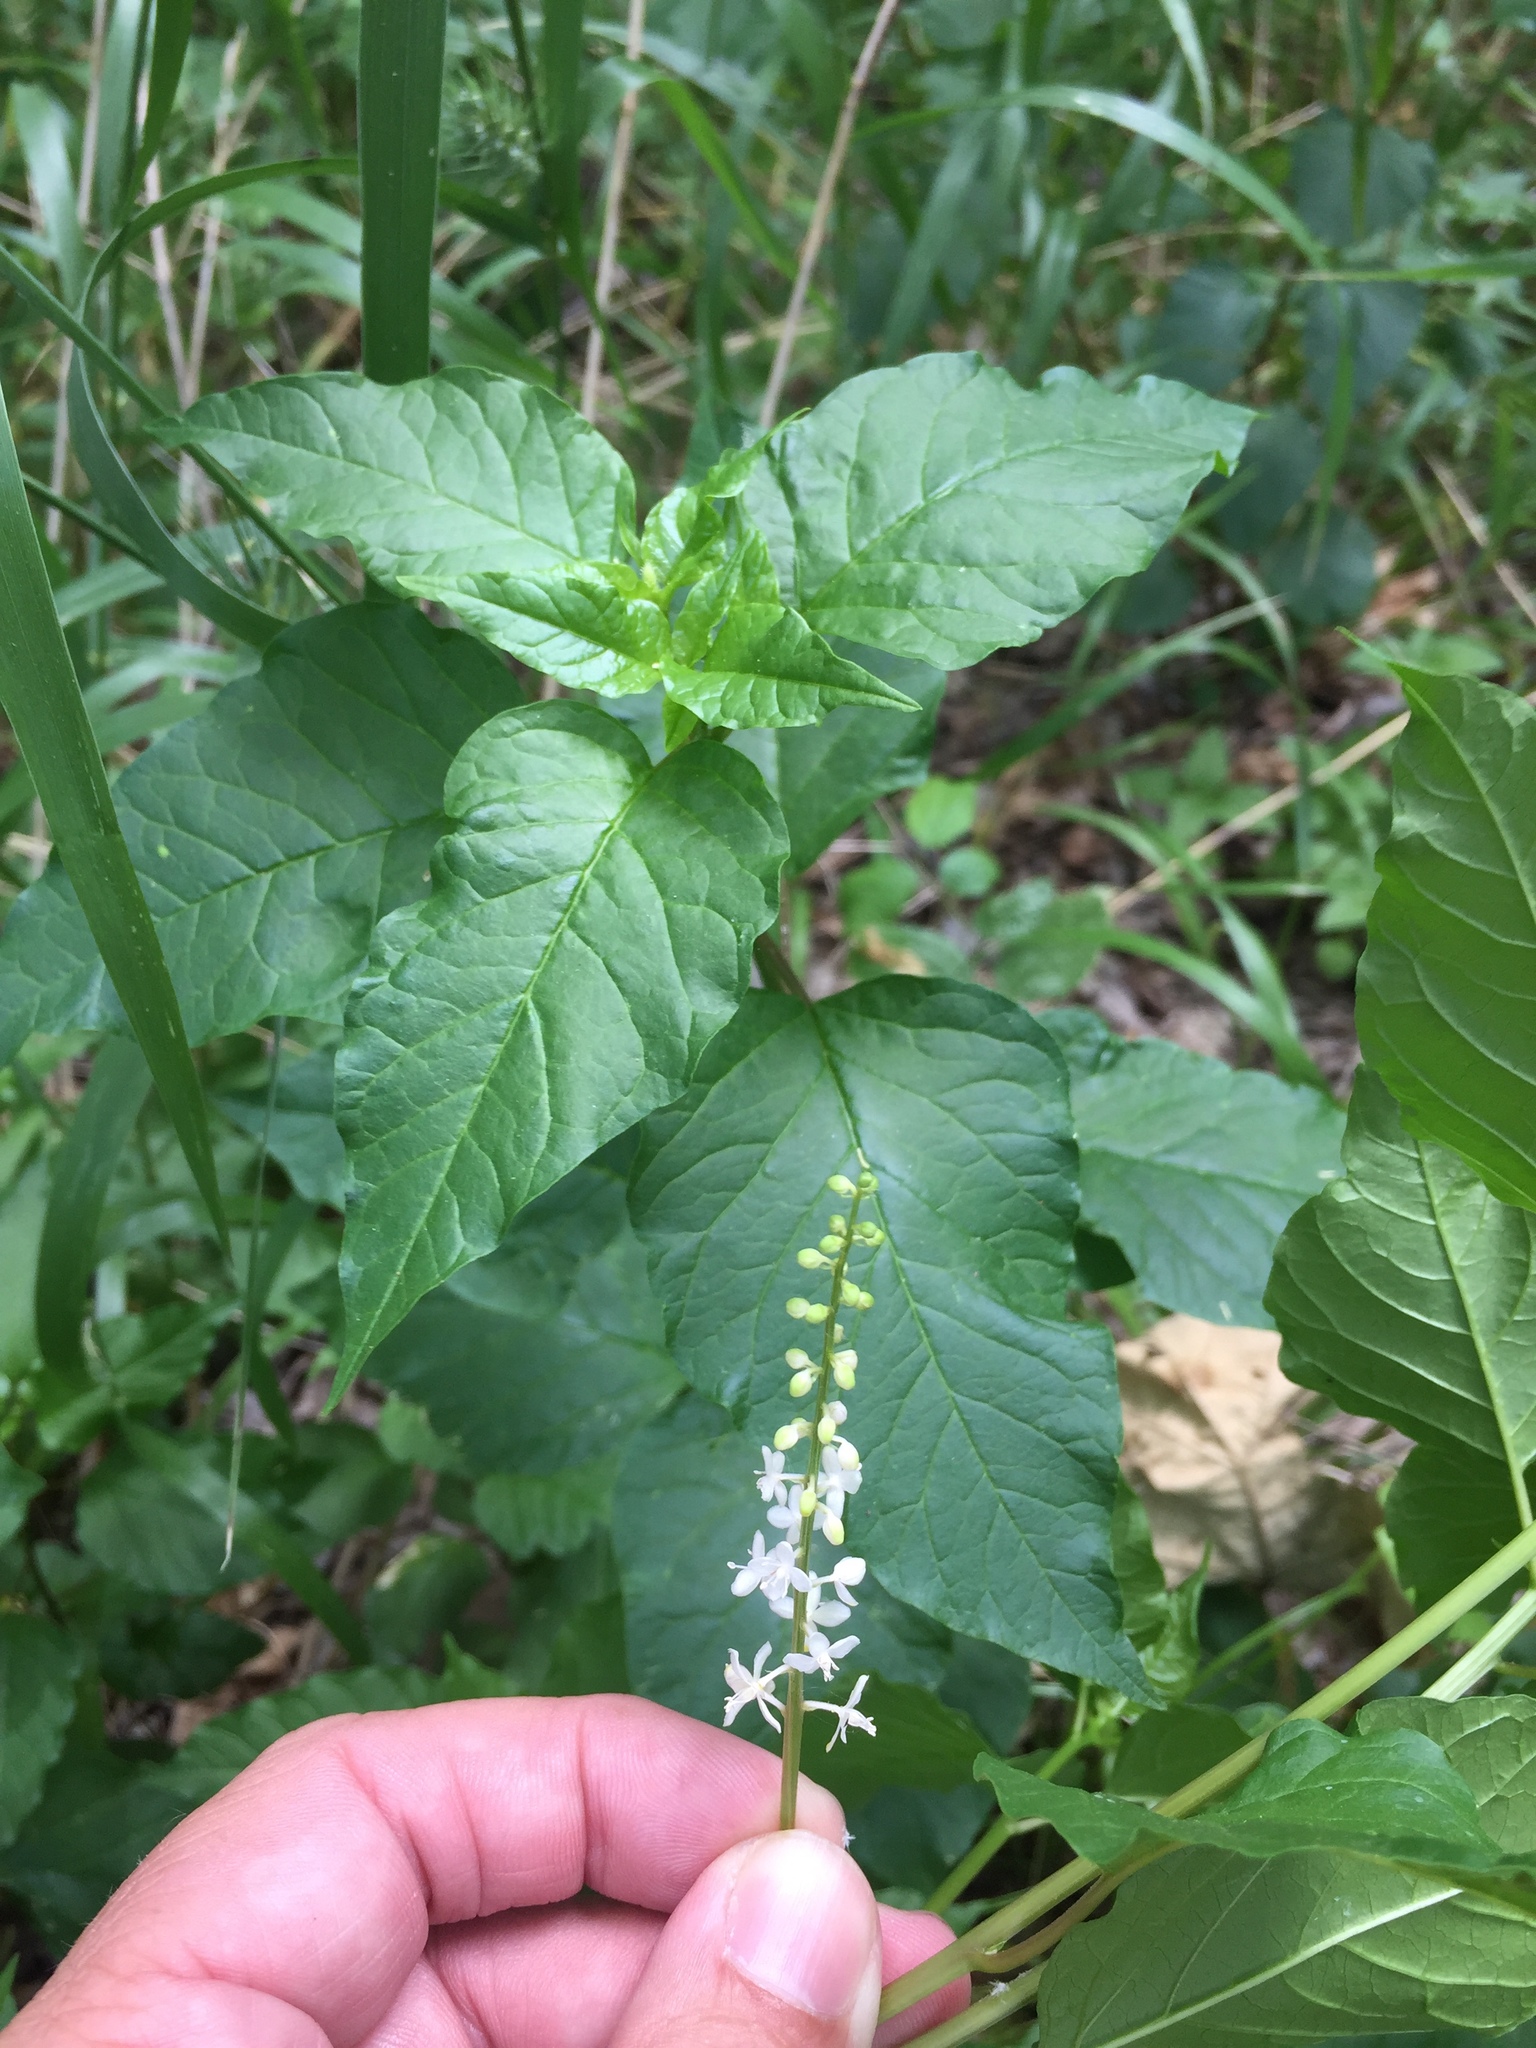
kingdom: Plantae
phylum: Tracheophyta
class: Magnoliopsida
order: Caryophyllales
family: Phytolaccaceae
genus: Rivina
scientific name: Rivina humilis
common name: Rougeplant
